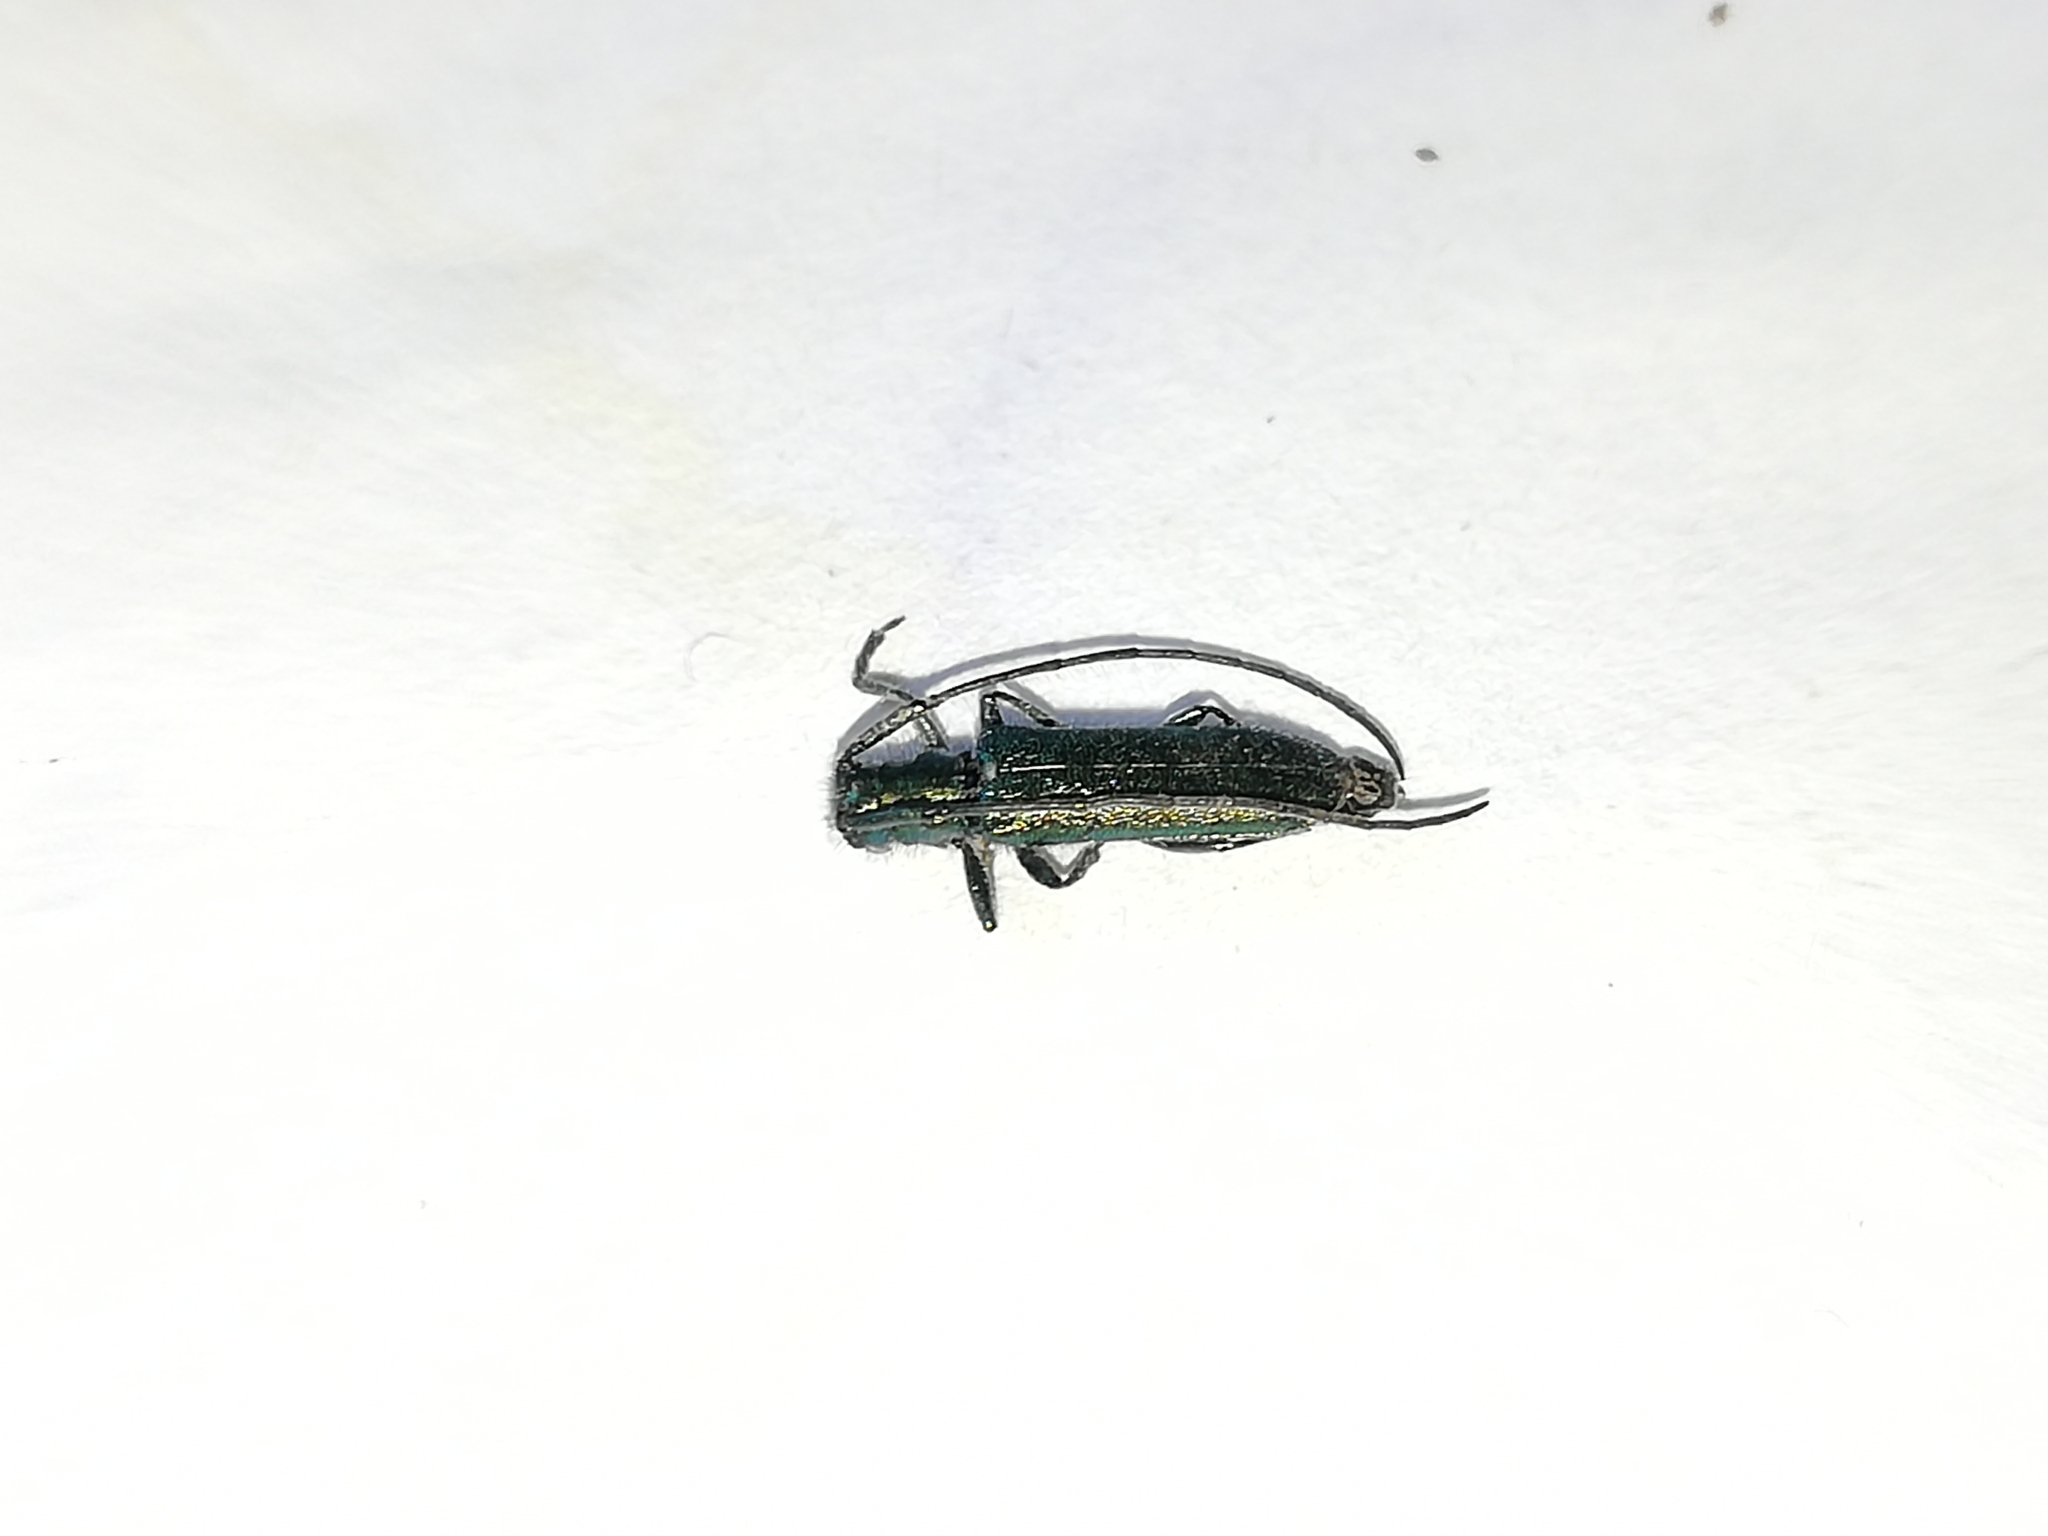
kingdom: Animalia
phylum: Arthropoda
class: Insecta
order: Coleoptera
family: Cerambycidae
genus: Agapanthia
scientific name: Agapanthia intermedia
